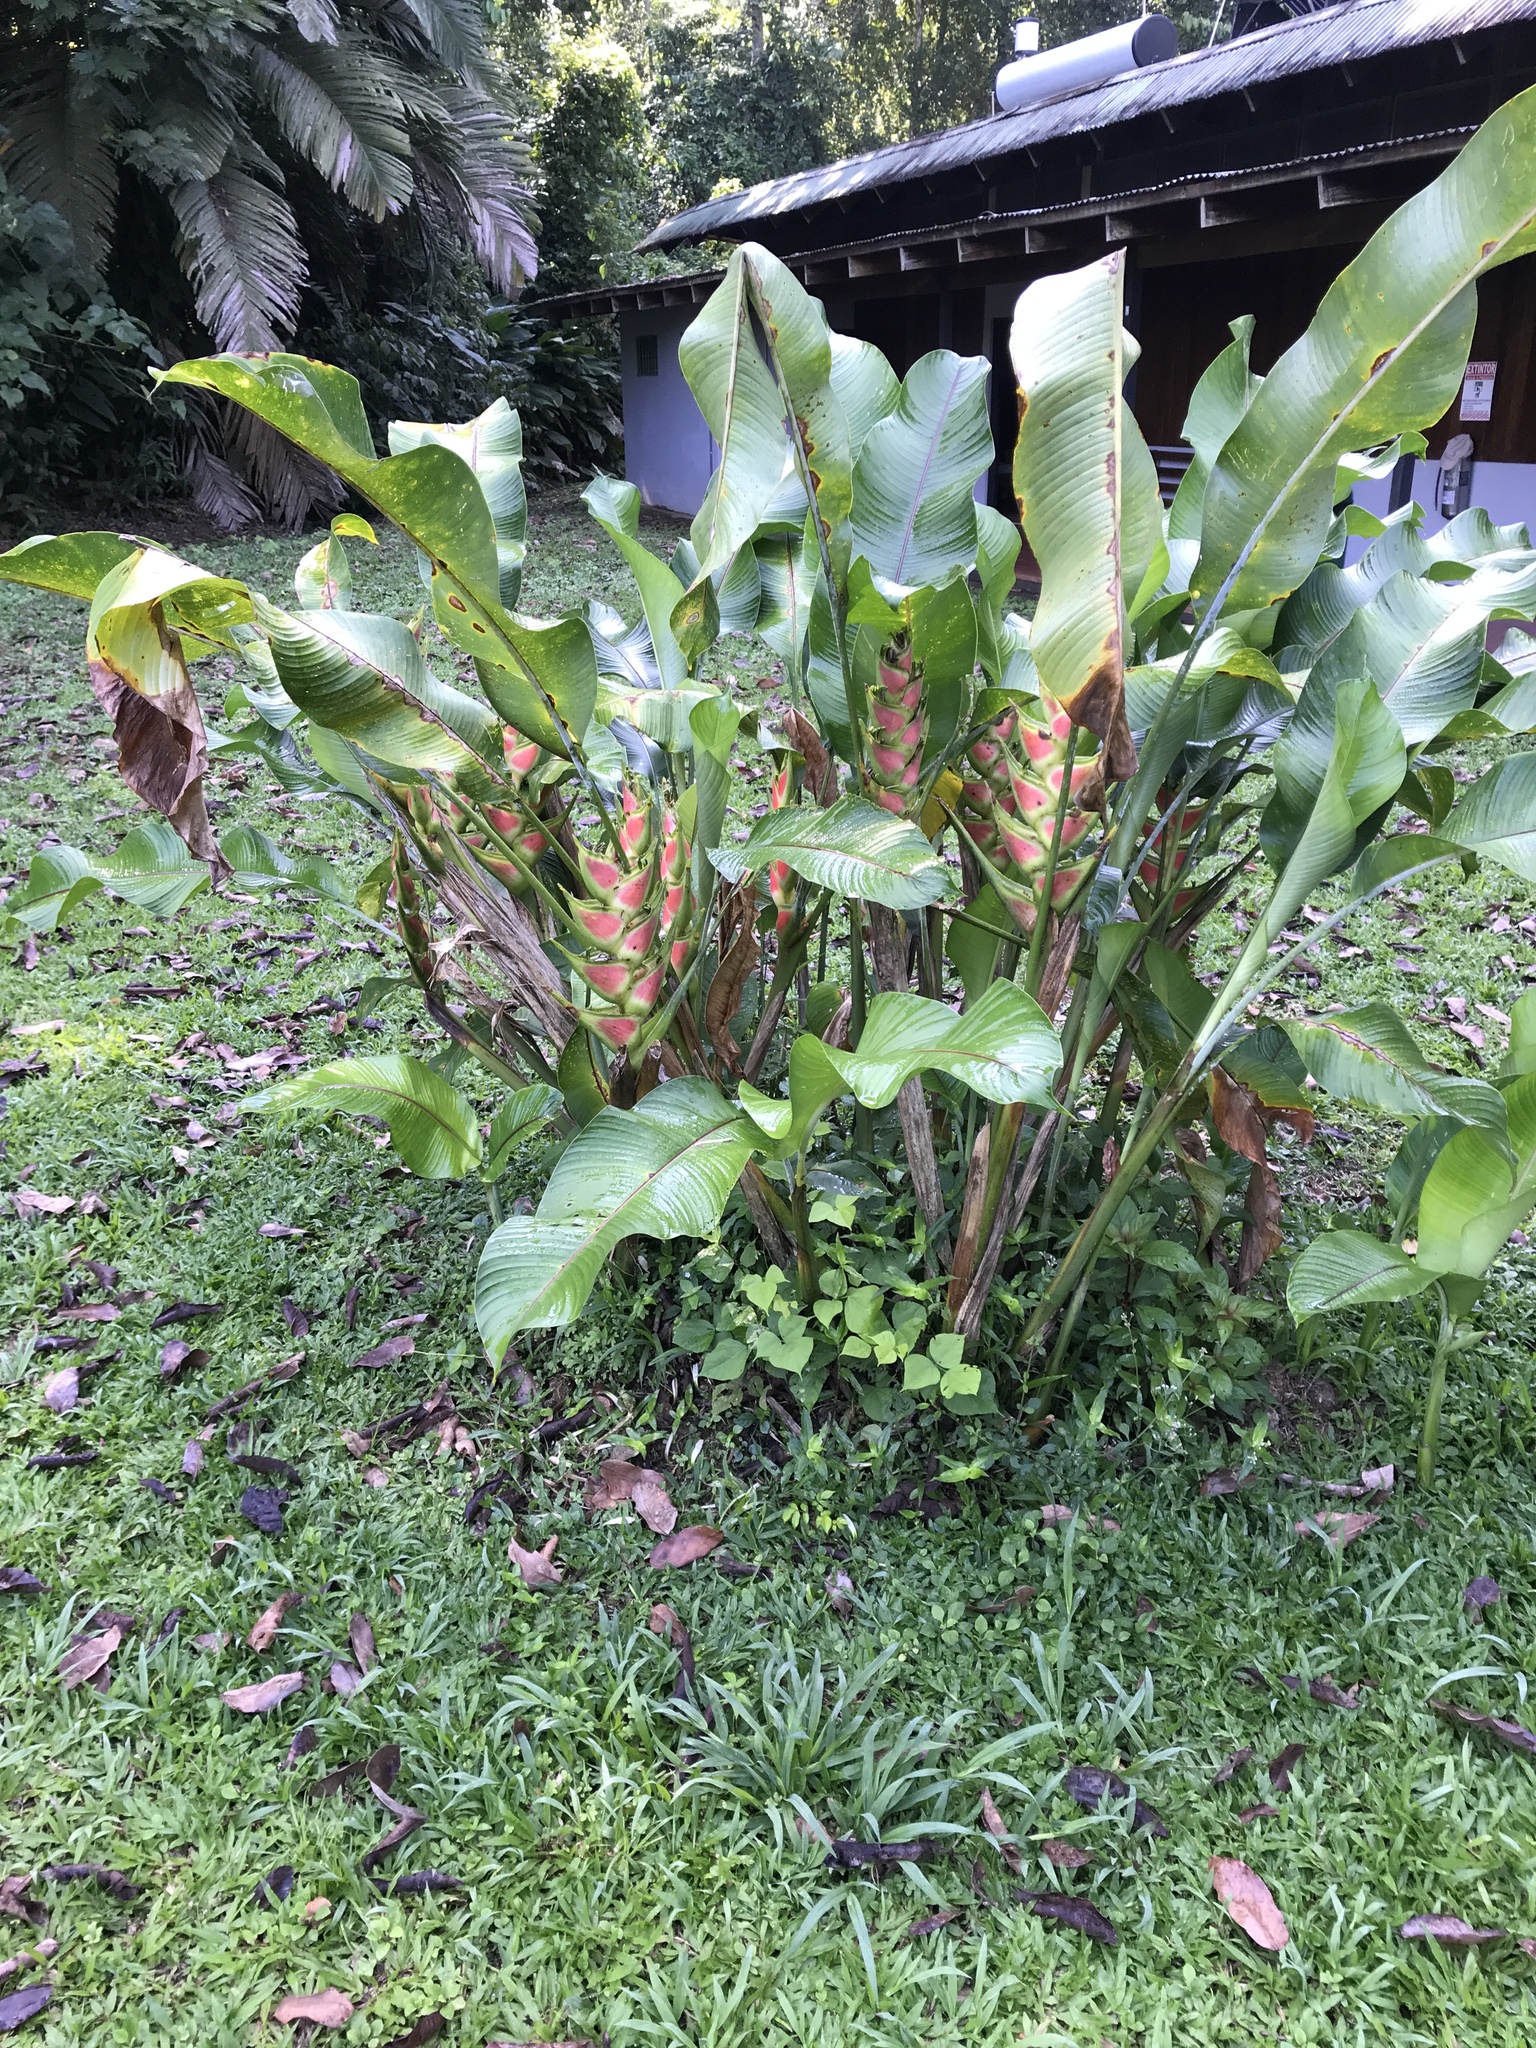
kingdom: Plantae
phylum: Tracheophyta
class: Liliopsida
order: Zingiberales
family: Heliconiaceae
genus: Heliconia
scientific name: Heliconia wagneriana
